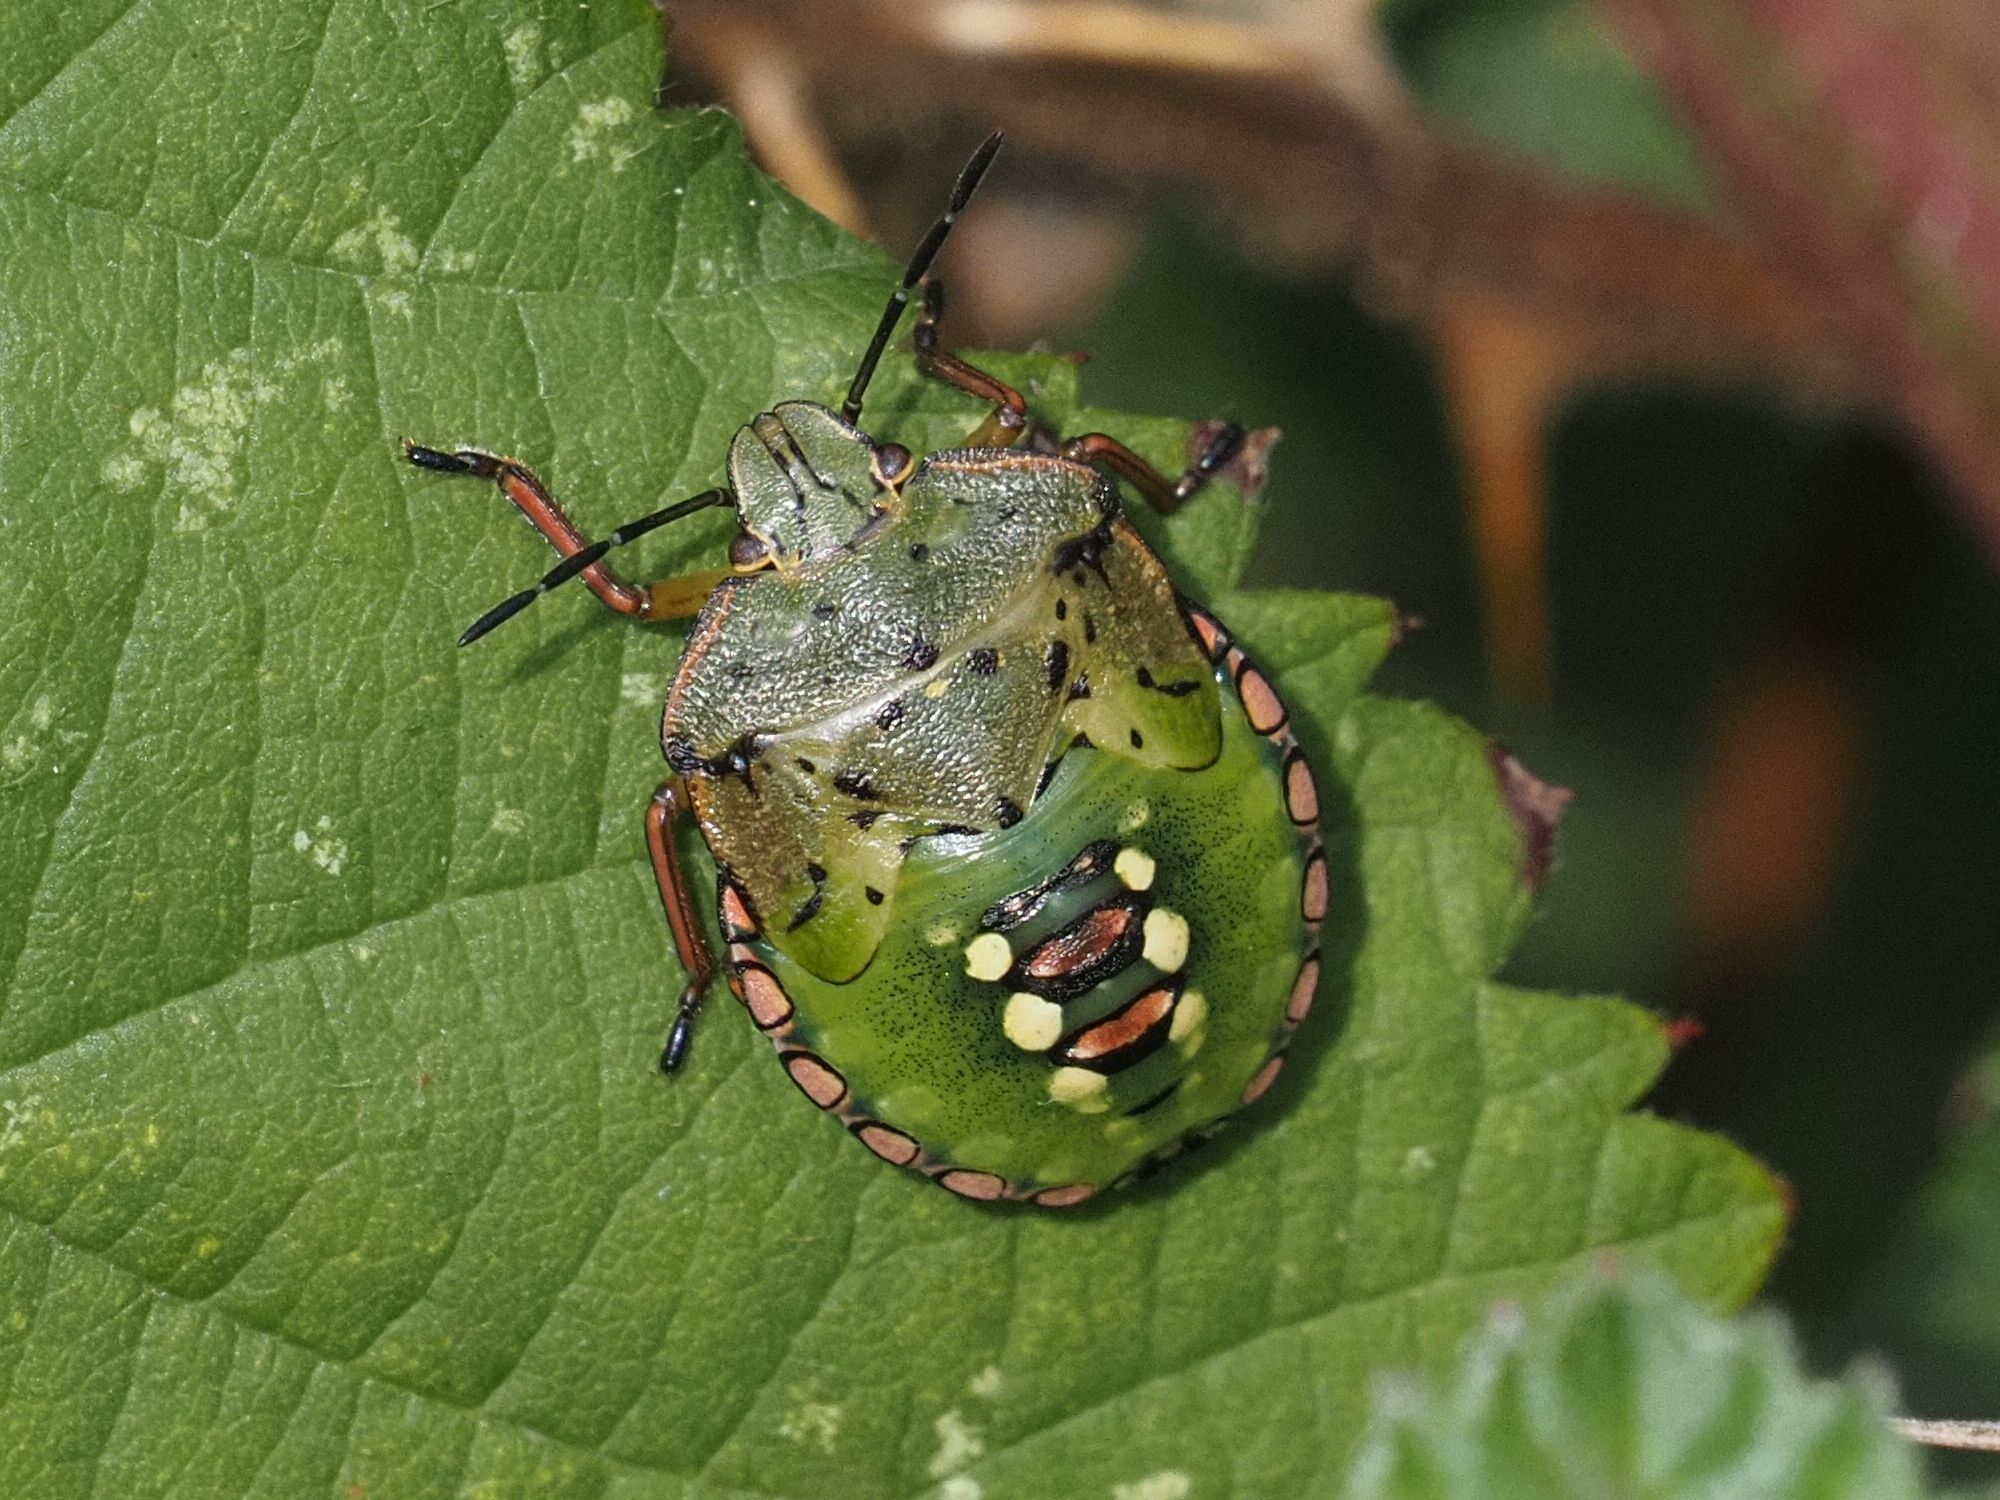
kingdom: Animalia
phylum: Arthropoda
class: Insecta
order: Hemiptera
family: Pentatomidae
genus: Nezara
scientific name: Nezara viridula
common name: Southern green stink bug
